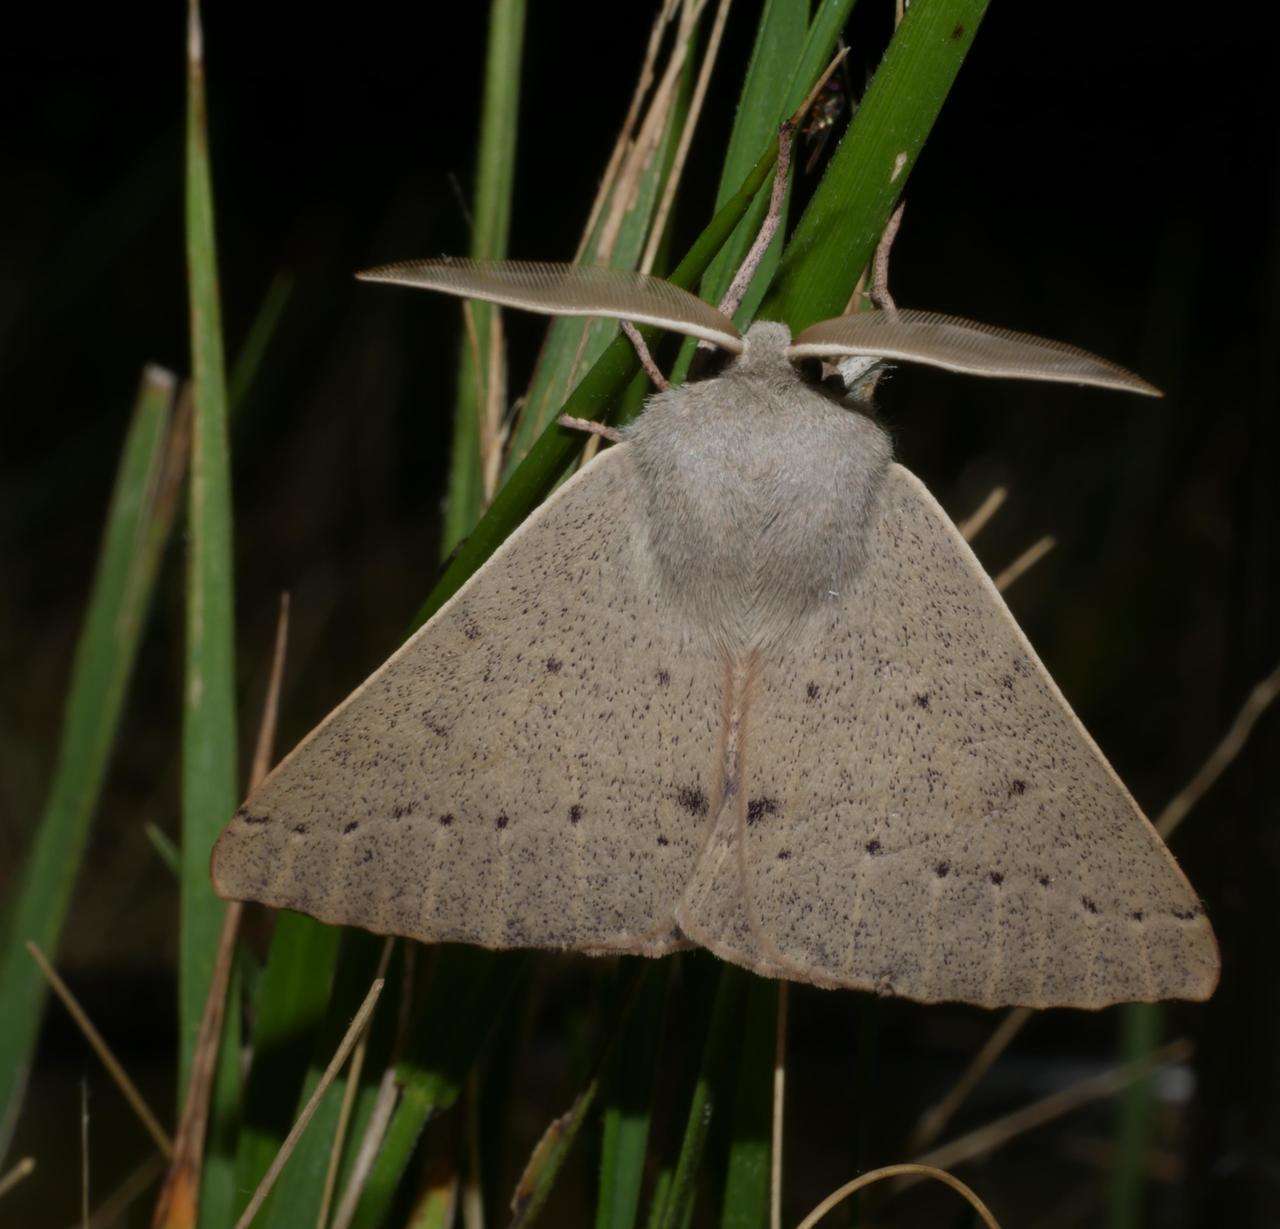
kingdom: Animalia
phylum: Arthropoda
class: Insecta
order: Lepidoptera
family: Geometridae
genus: Arhodia
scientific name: Arhodia lasiocamparia
